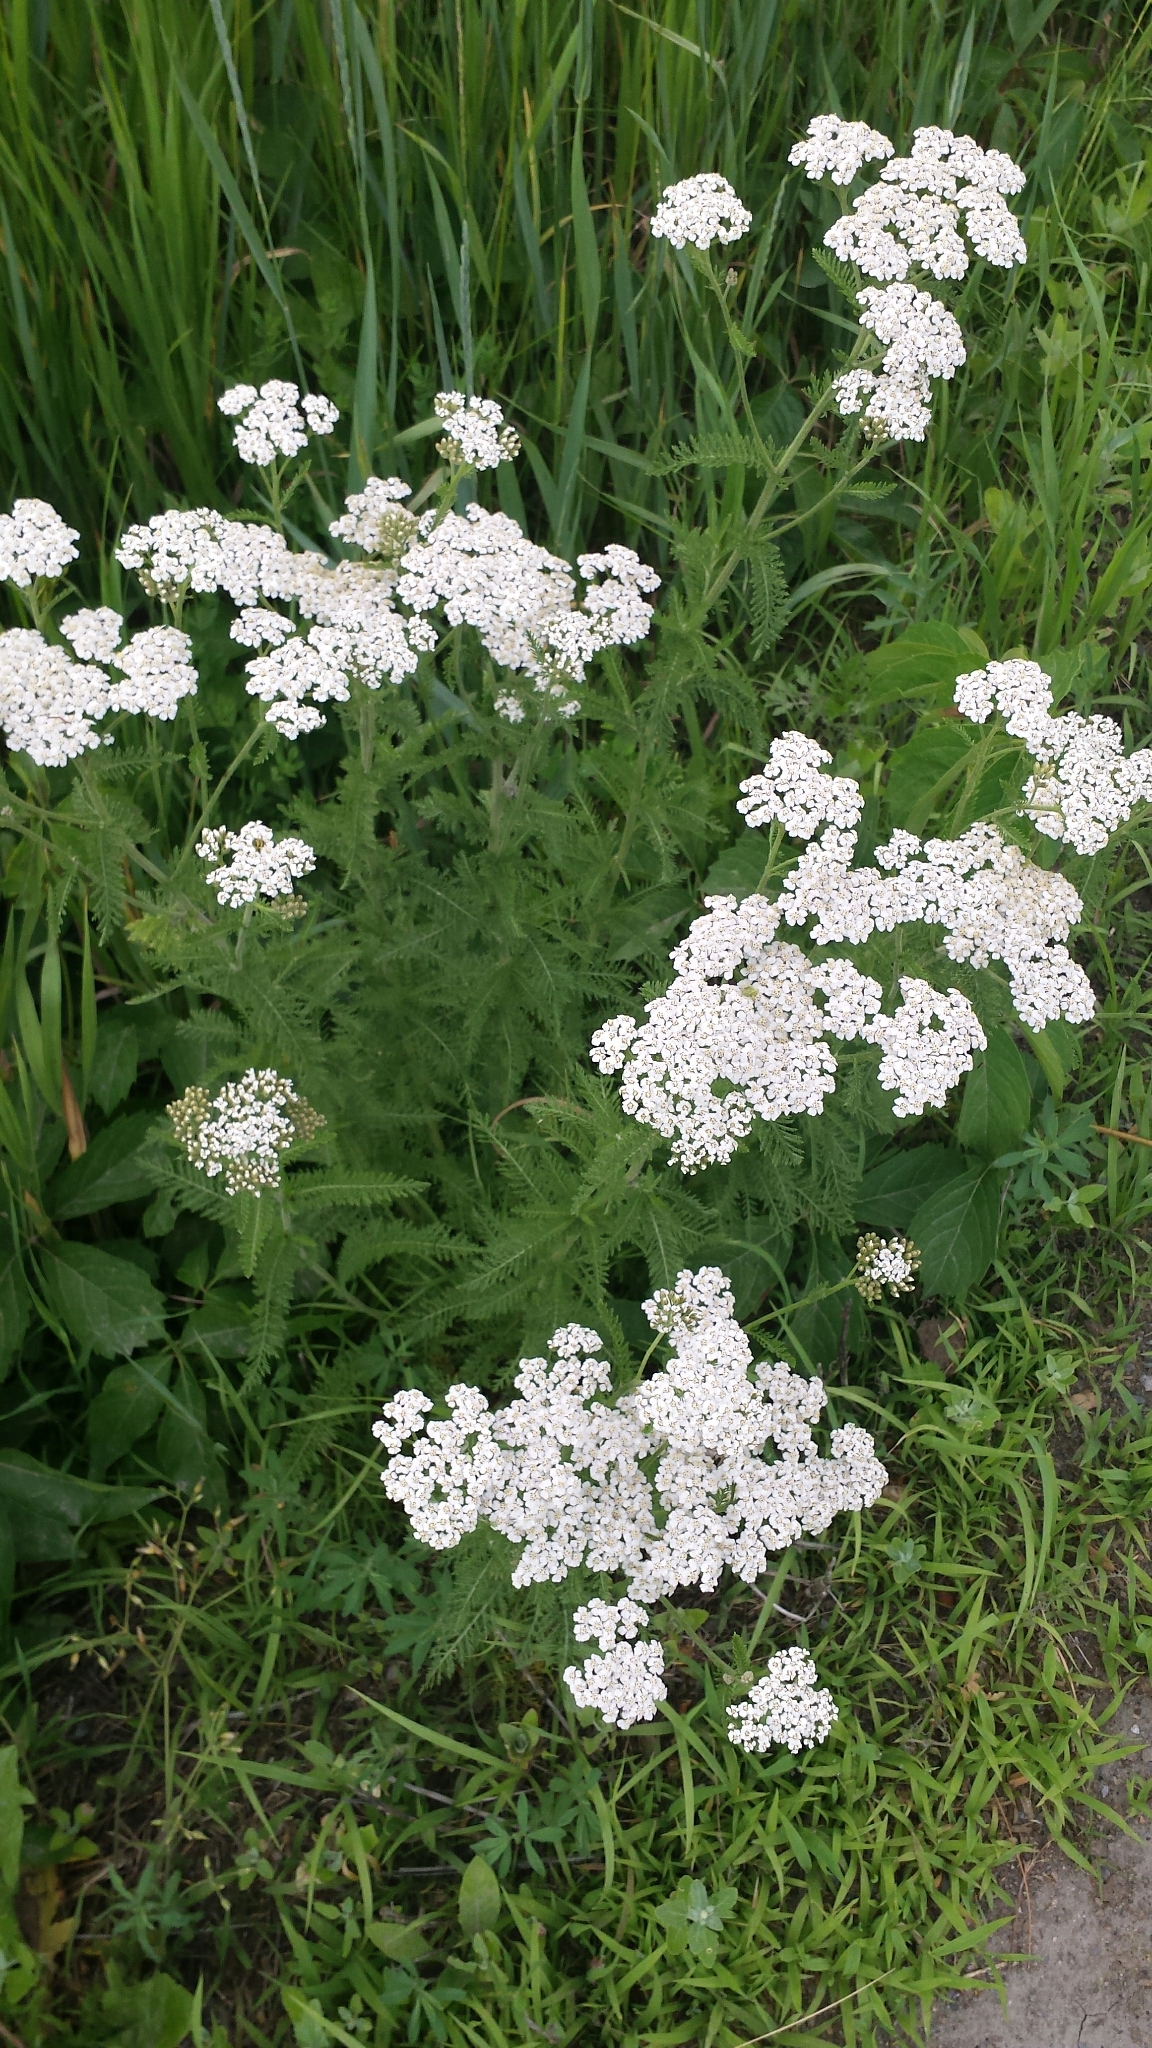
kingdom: Plantae
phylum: Tracheophyta
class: Magnoliopsida
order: Asterales
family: Asteraceae
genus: Achillea
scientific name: Achillea millefolium
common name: Yarrow
